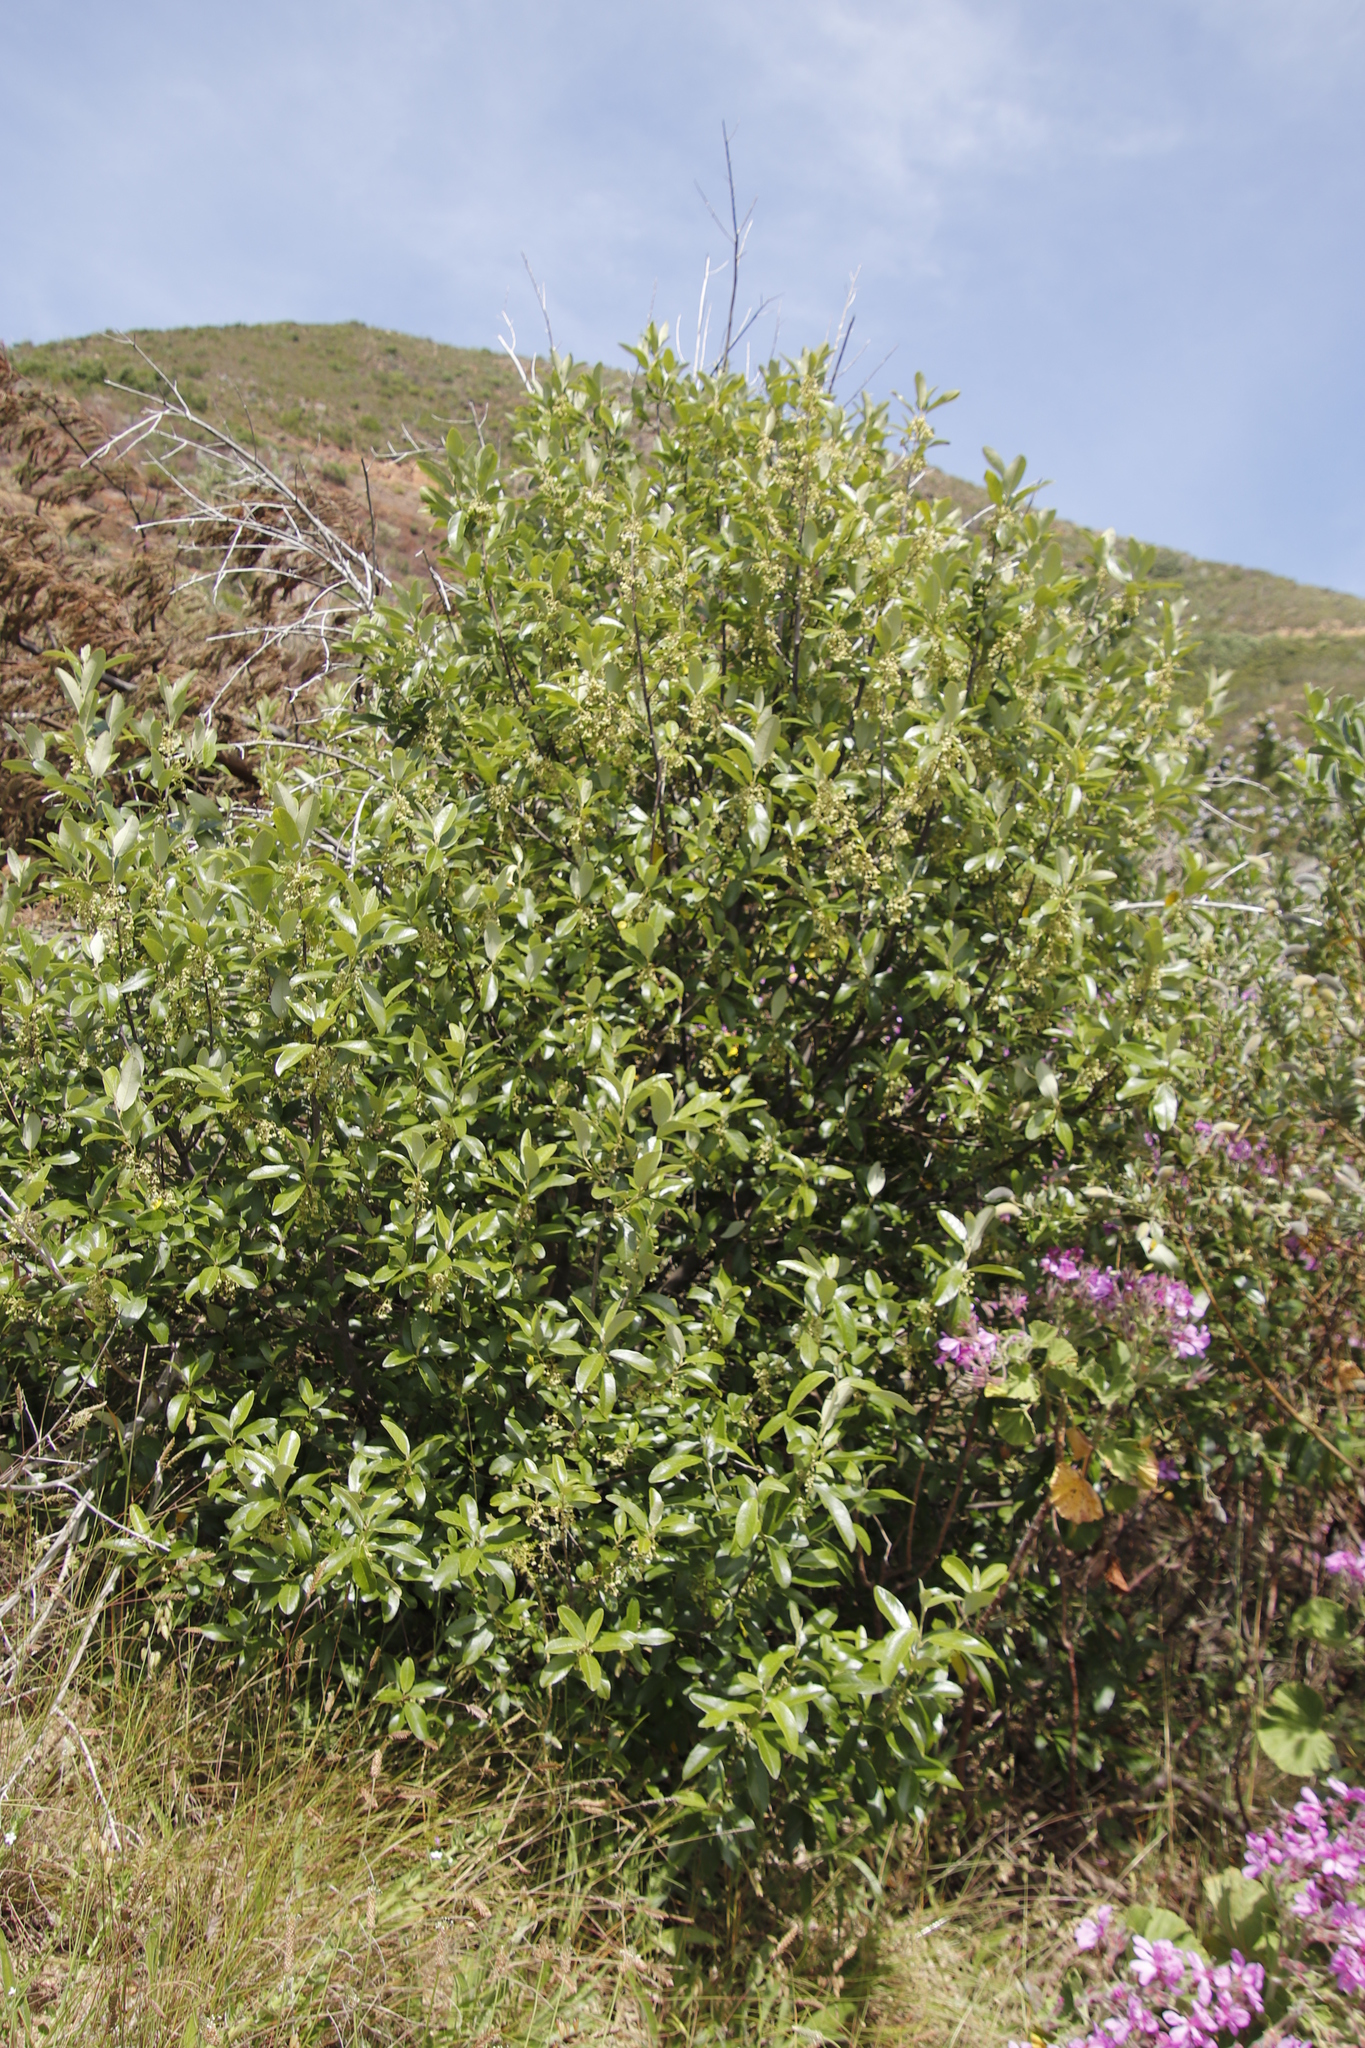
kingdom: Plantae
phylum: Tracheophyta
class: Magnoliopsida
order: Malpighiales
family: Achariaceae
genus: Kiggelaria
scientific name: Kiggelaria africana
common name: Wild peach
